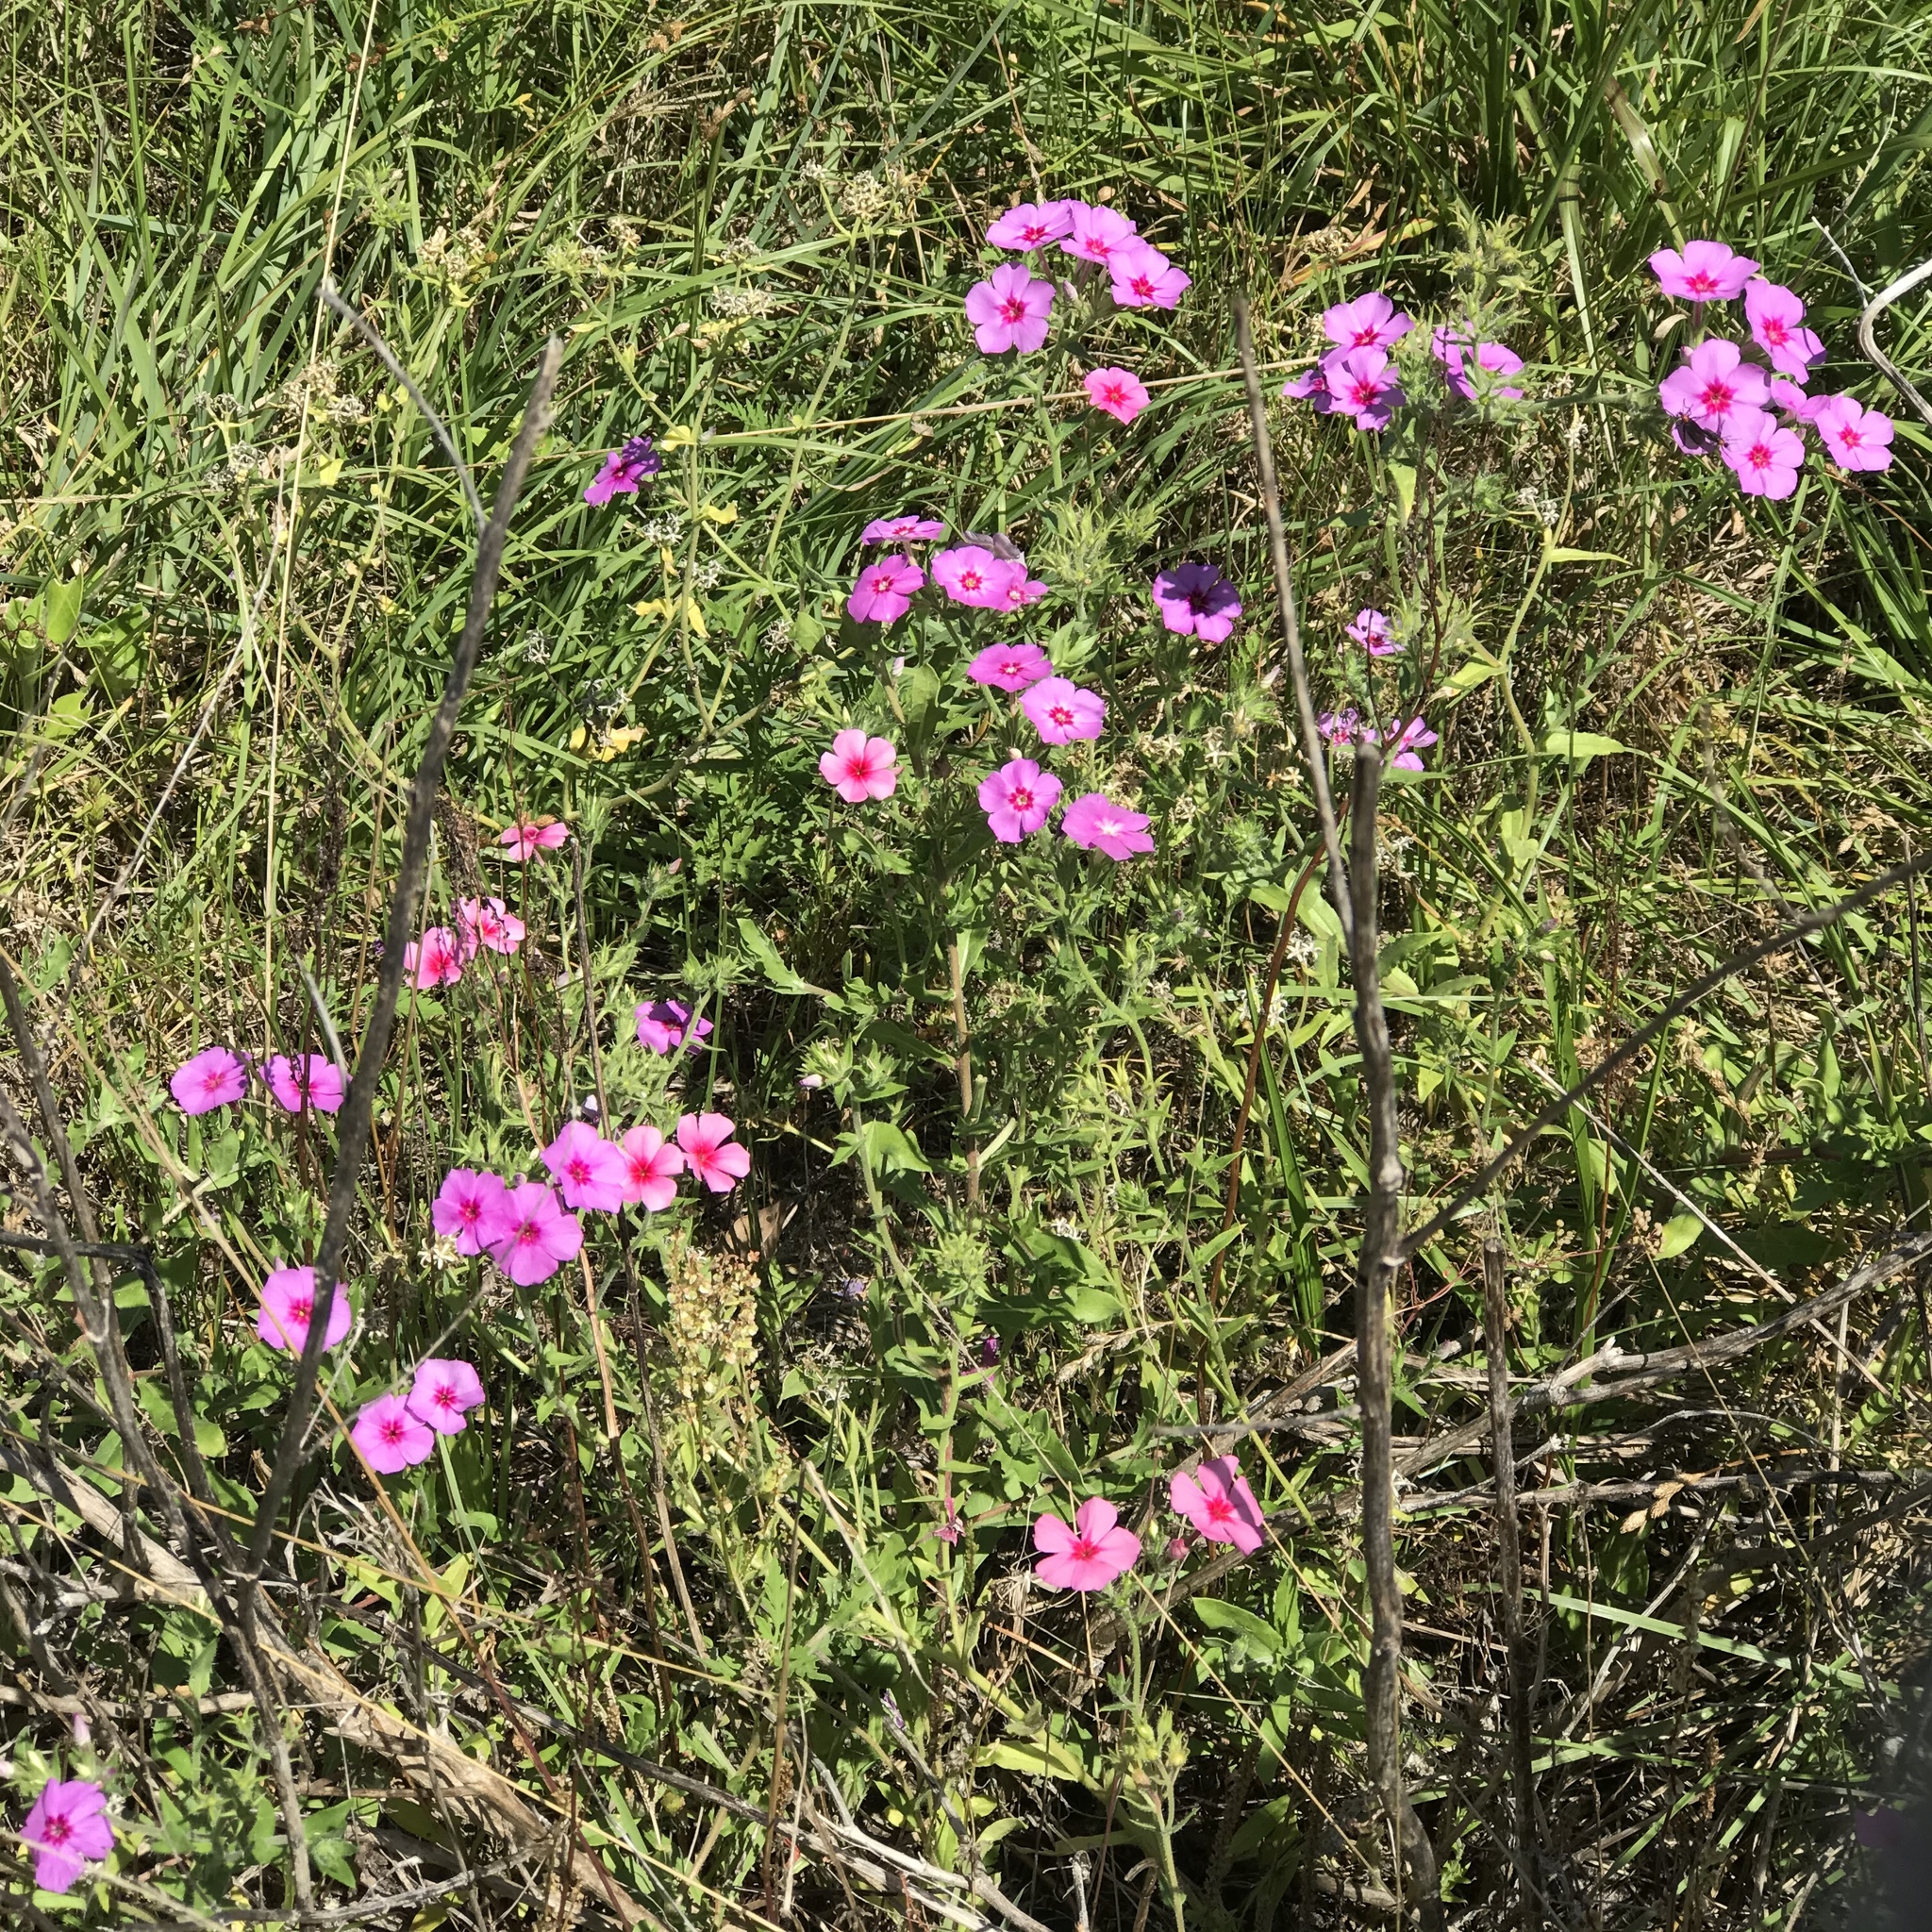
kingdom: Plantae
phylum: Tracheophyta
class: Magnoliopsida
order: Ericales
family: Polemoniaceae
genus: Phlox
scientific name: Phlox drummondii
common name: Drummond's phlox
